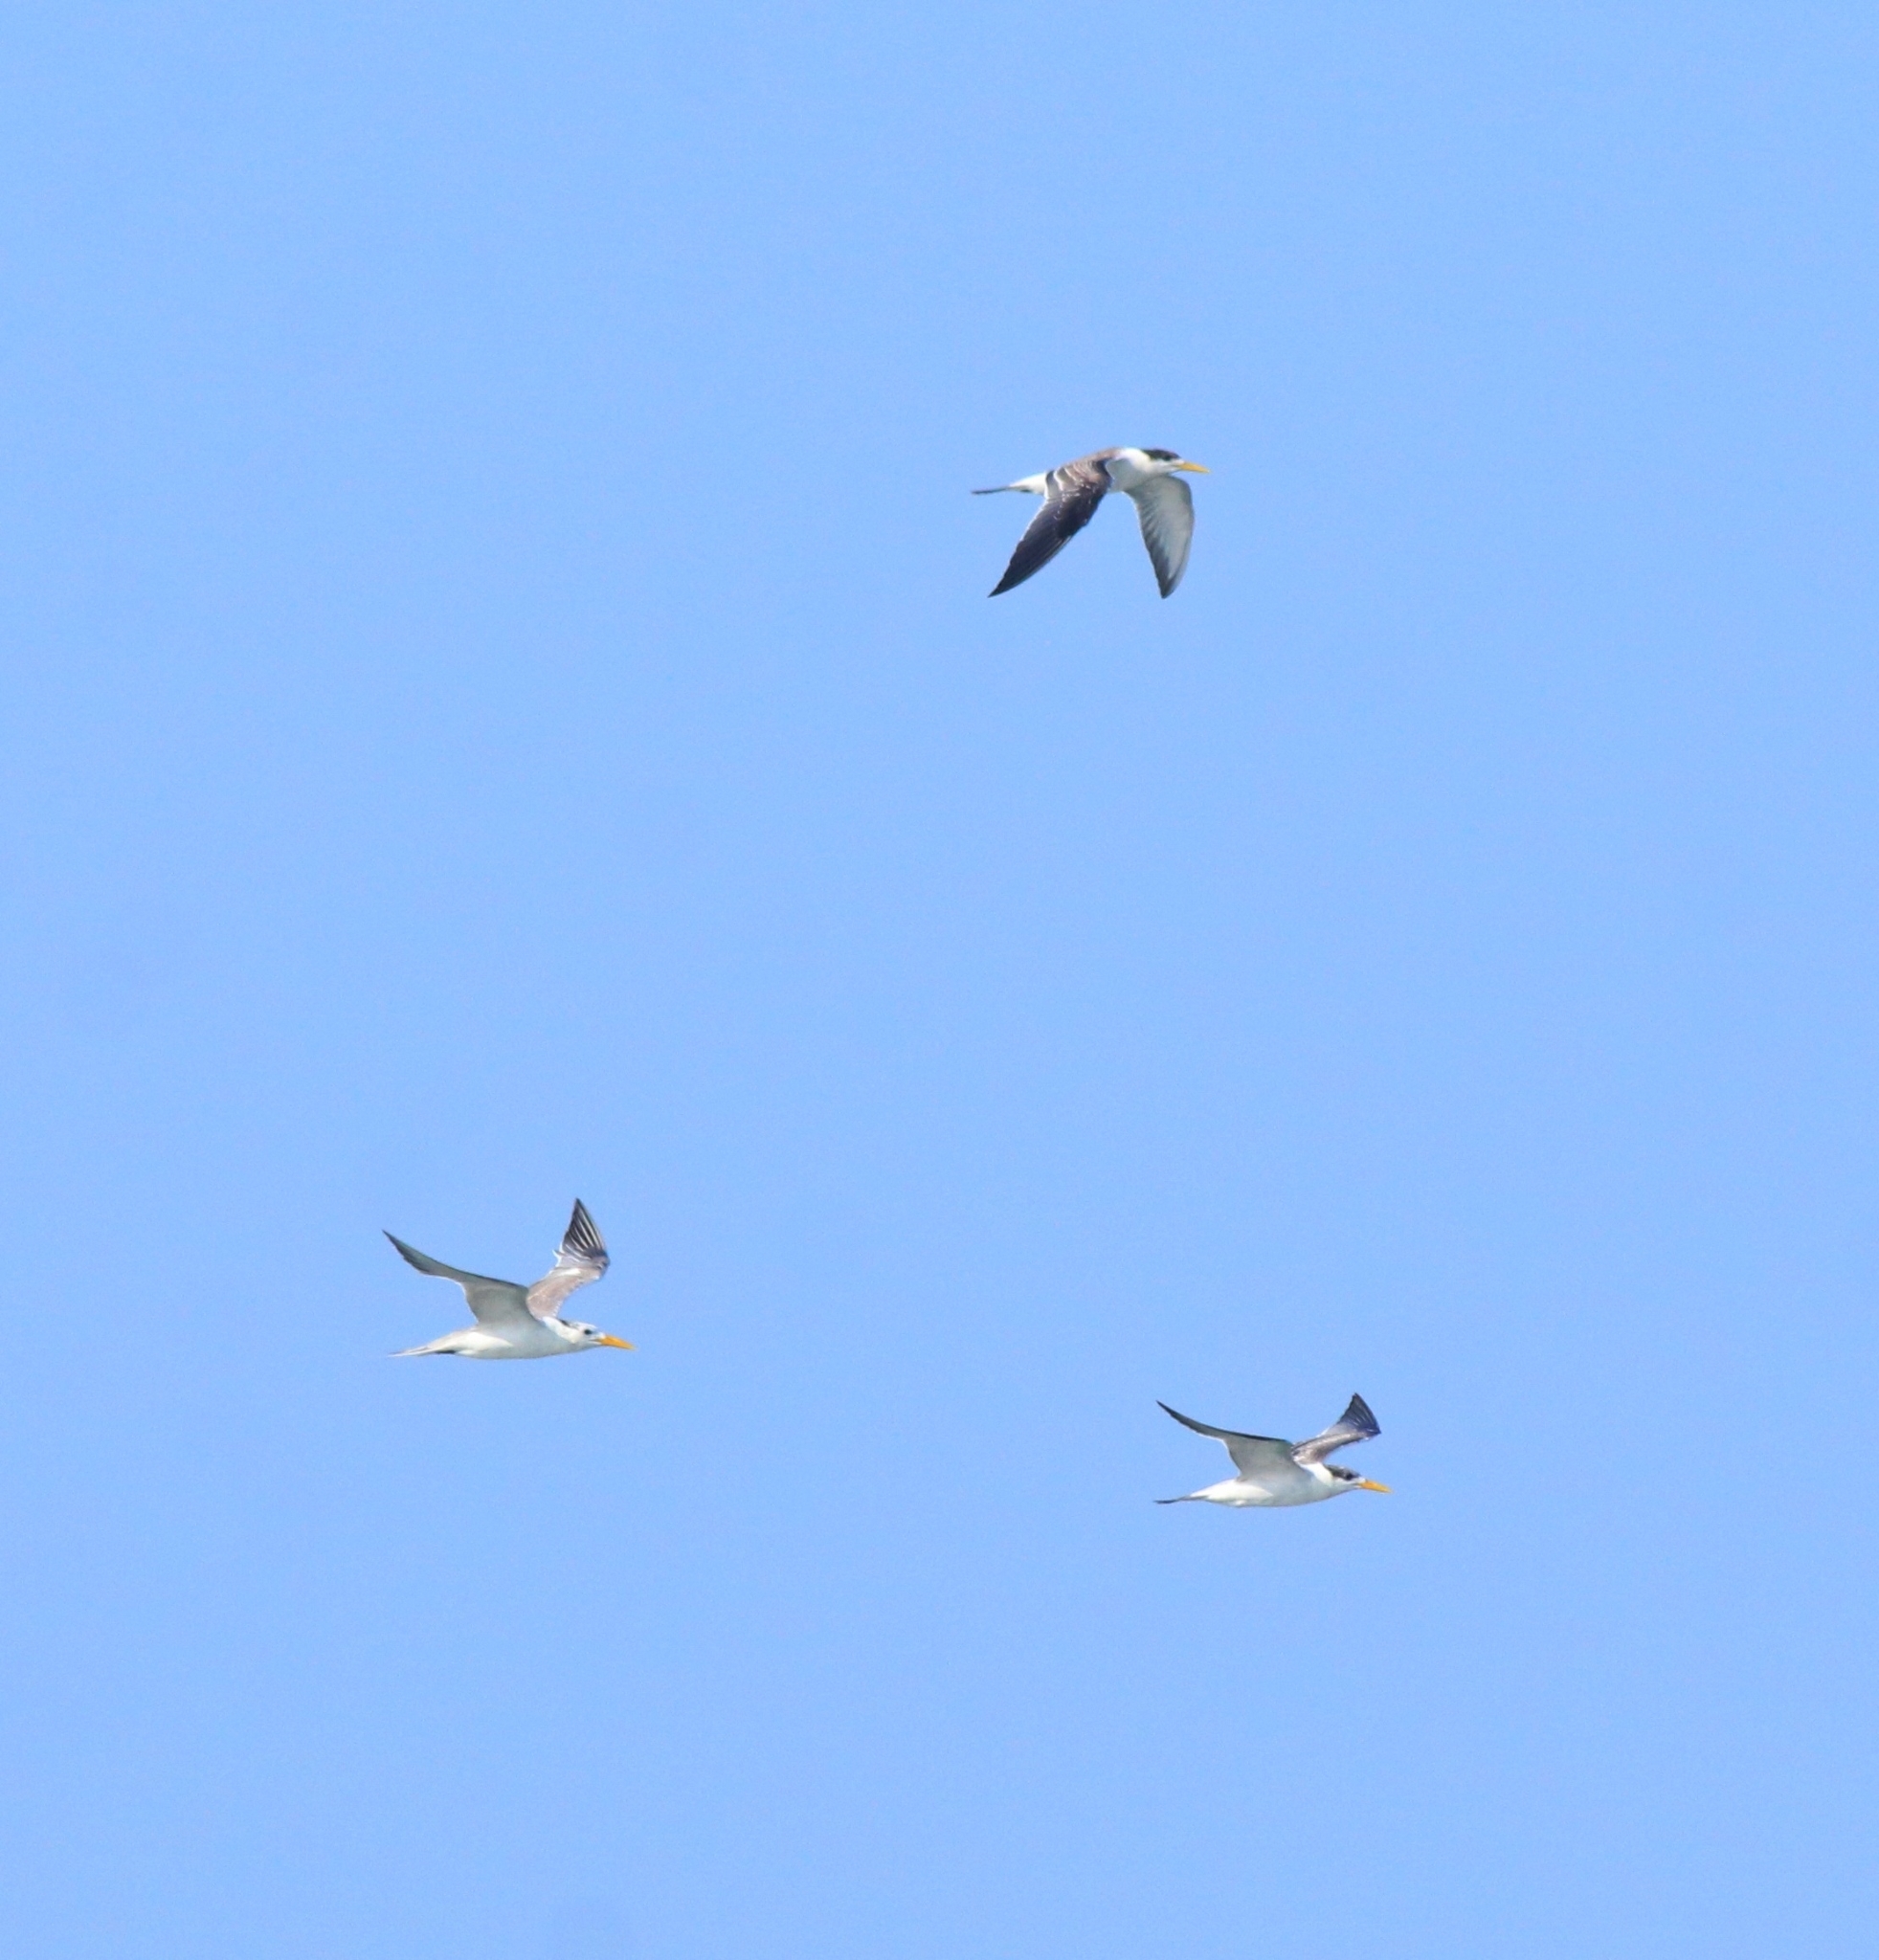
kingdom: Animalia
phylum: Chordata
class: Aves
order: Charadriiformes
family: Laridae
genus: Thalasseus
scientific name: Thalasseus bengalensis
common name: Lesser crested tern
